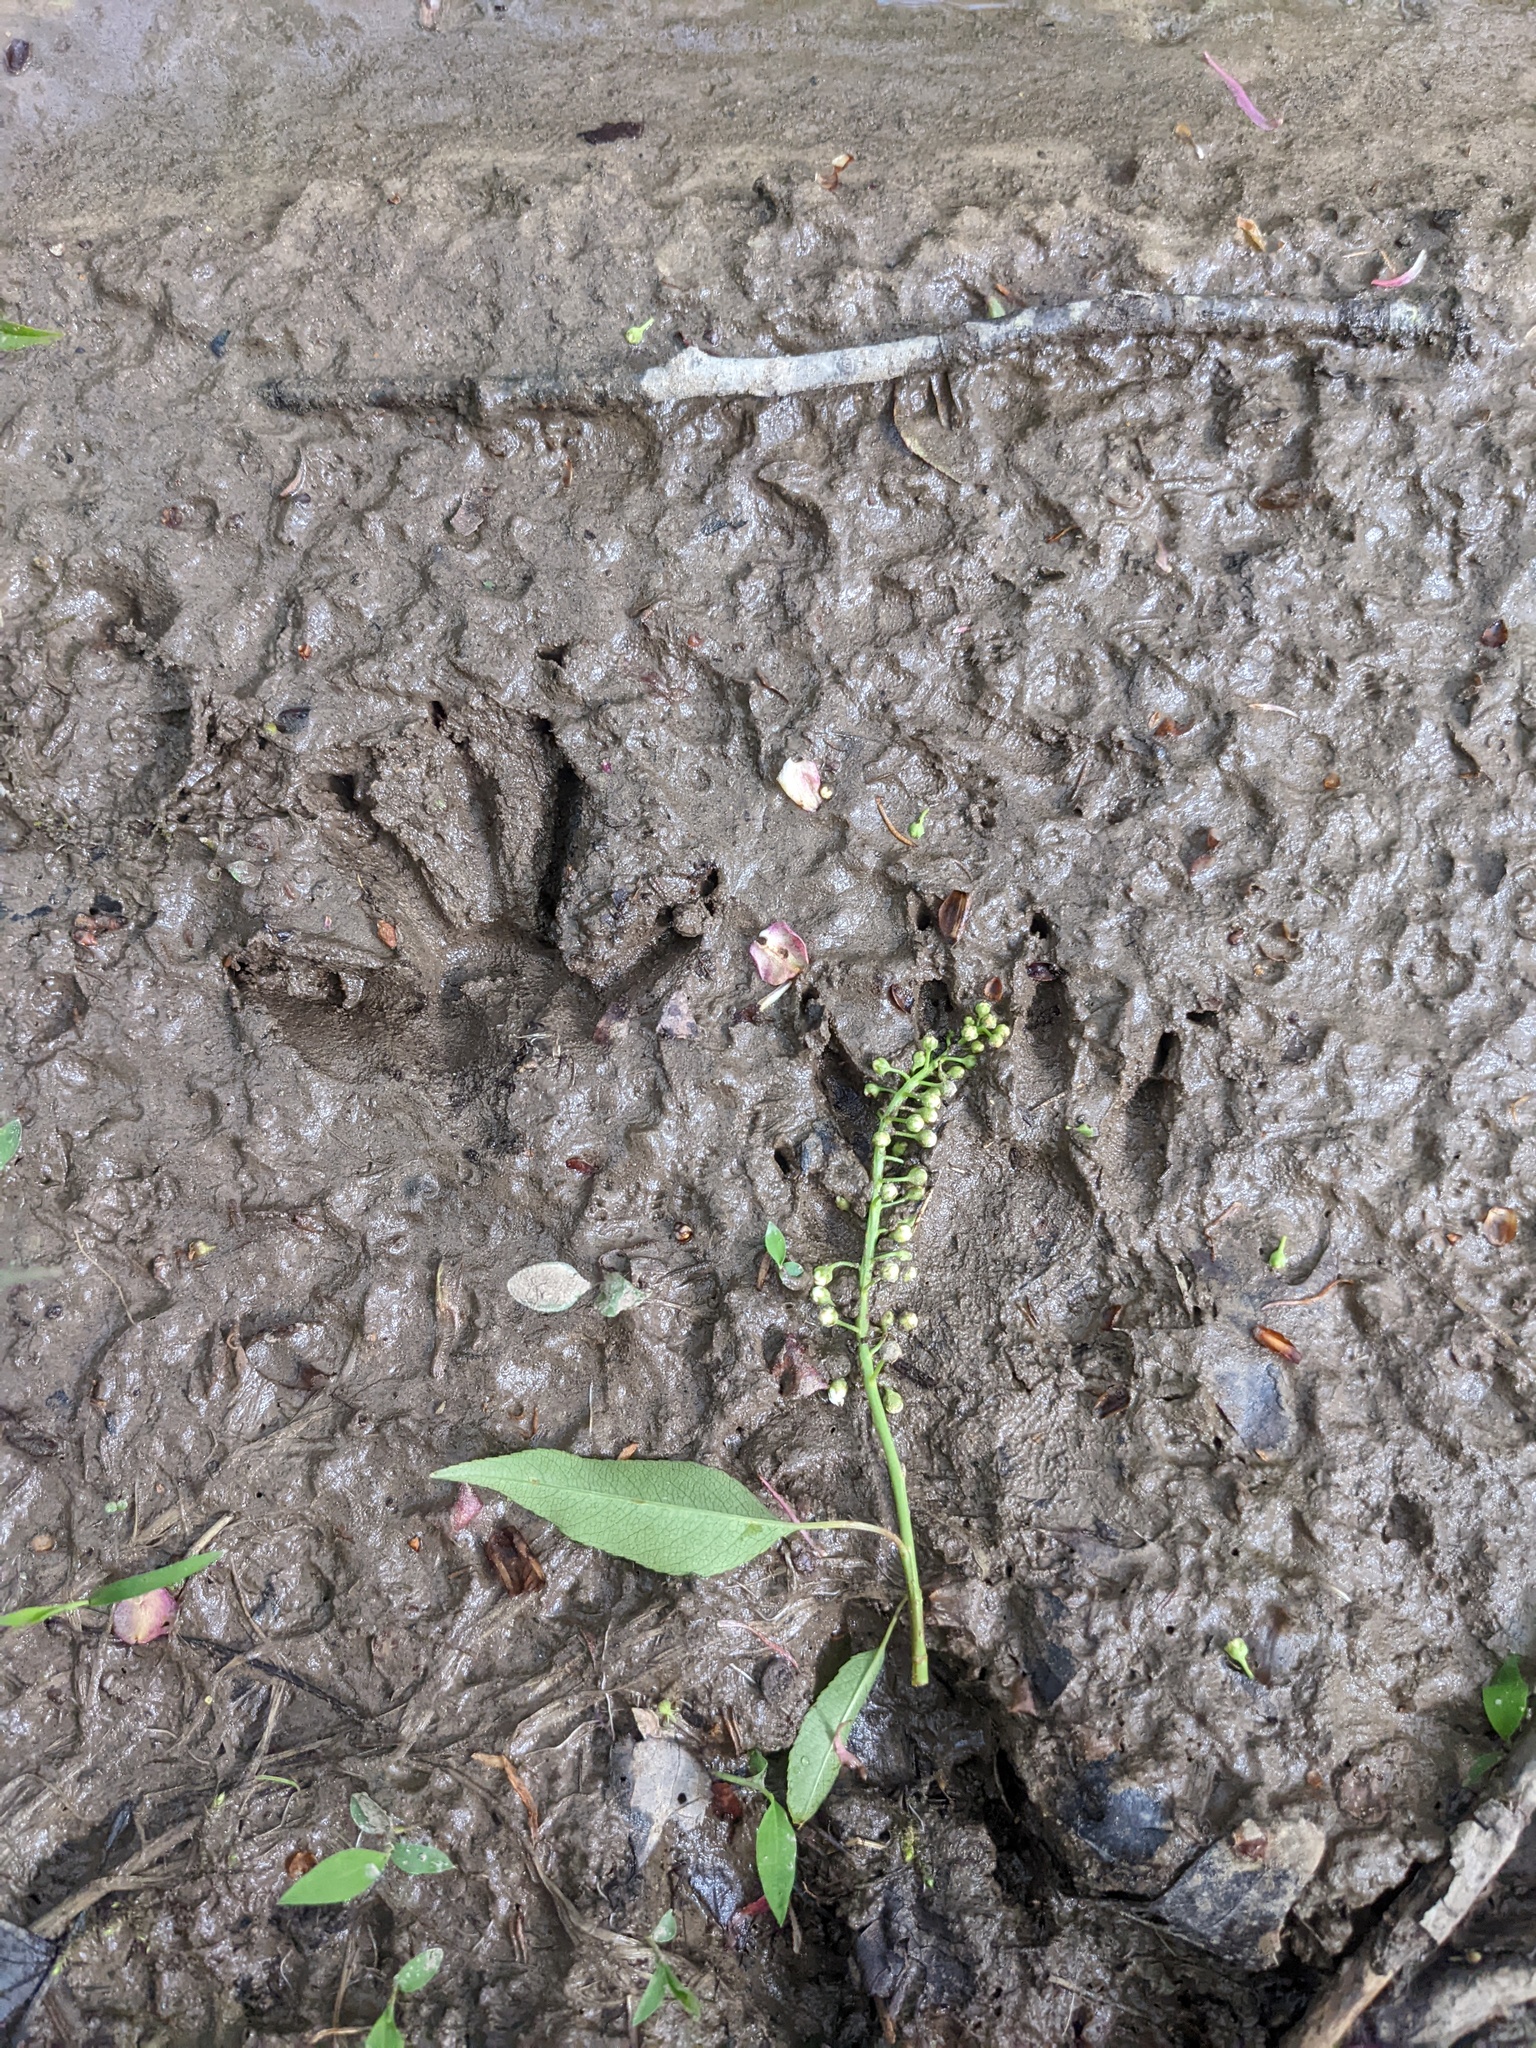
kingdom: Animalia
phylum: Chordata
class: Mammalia
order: Carnivora
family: Procyonidae
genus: Procyon
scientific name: Procyon lotor
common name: Raccoon
